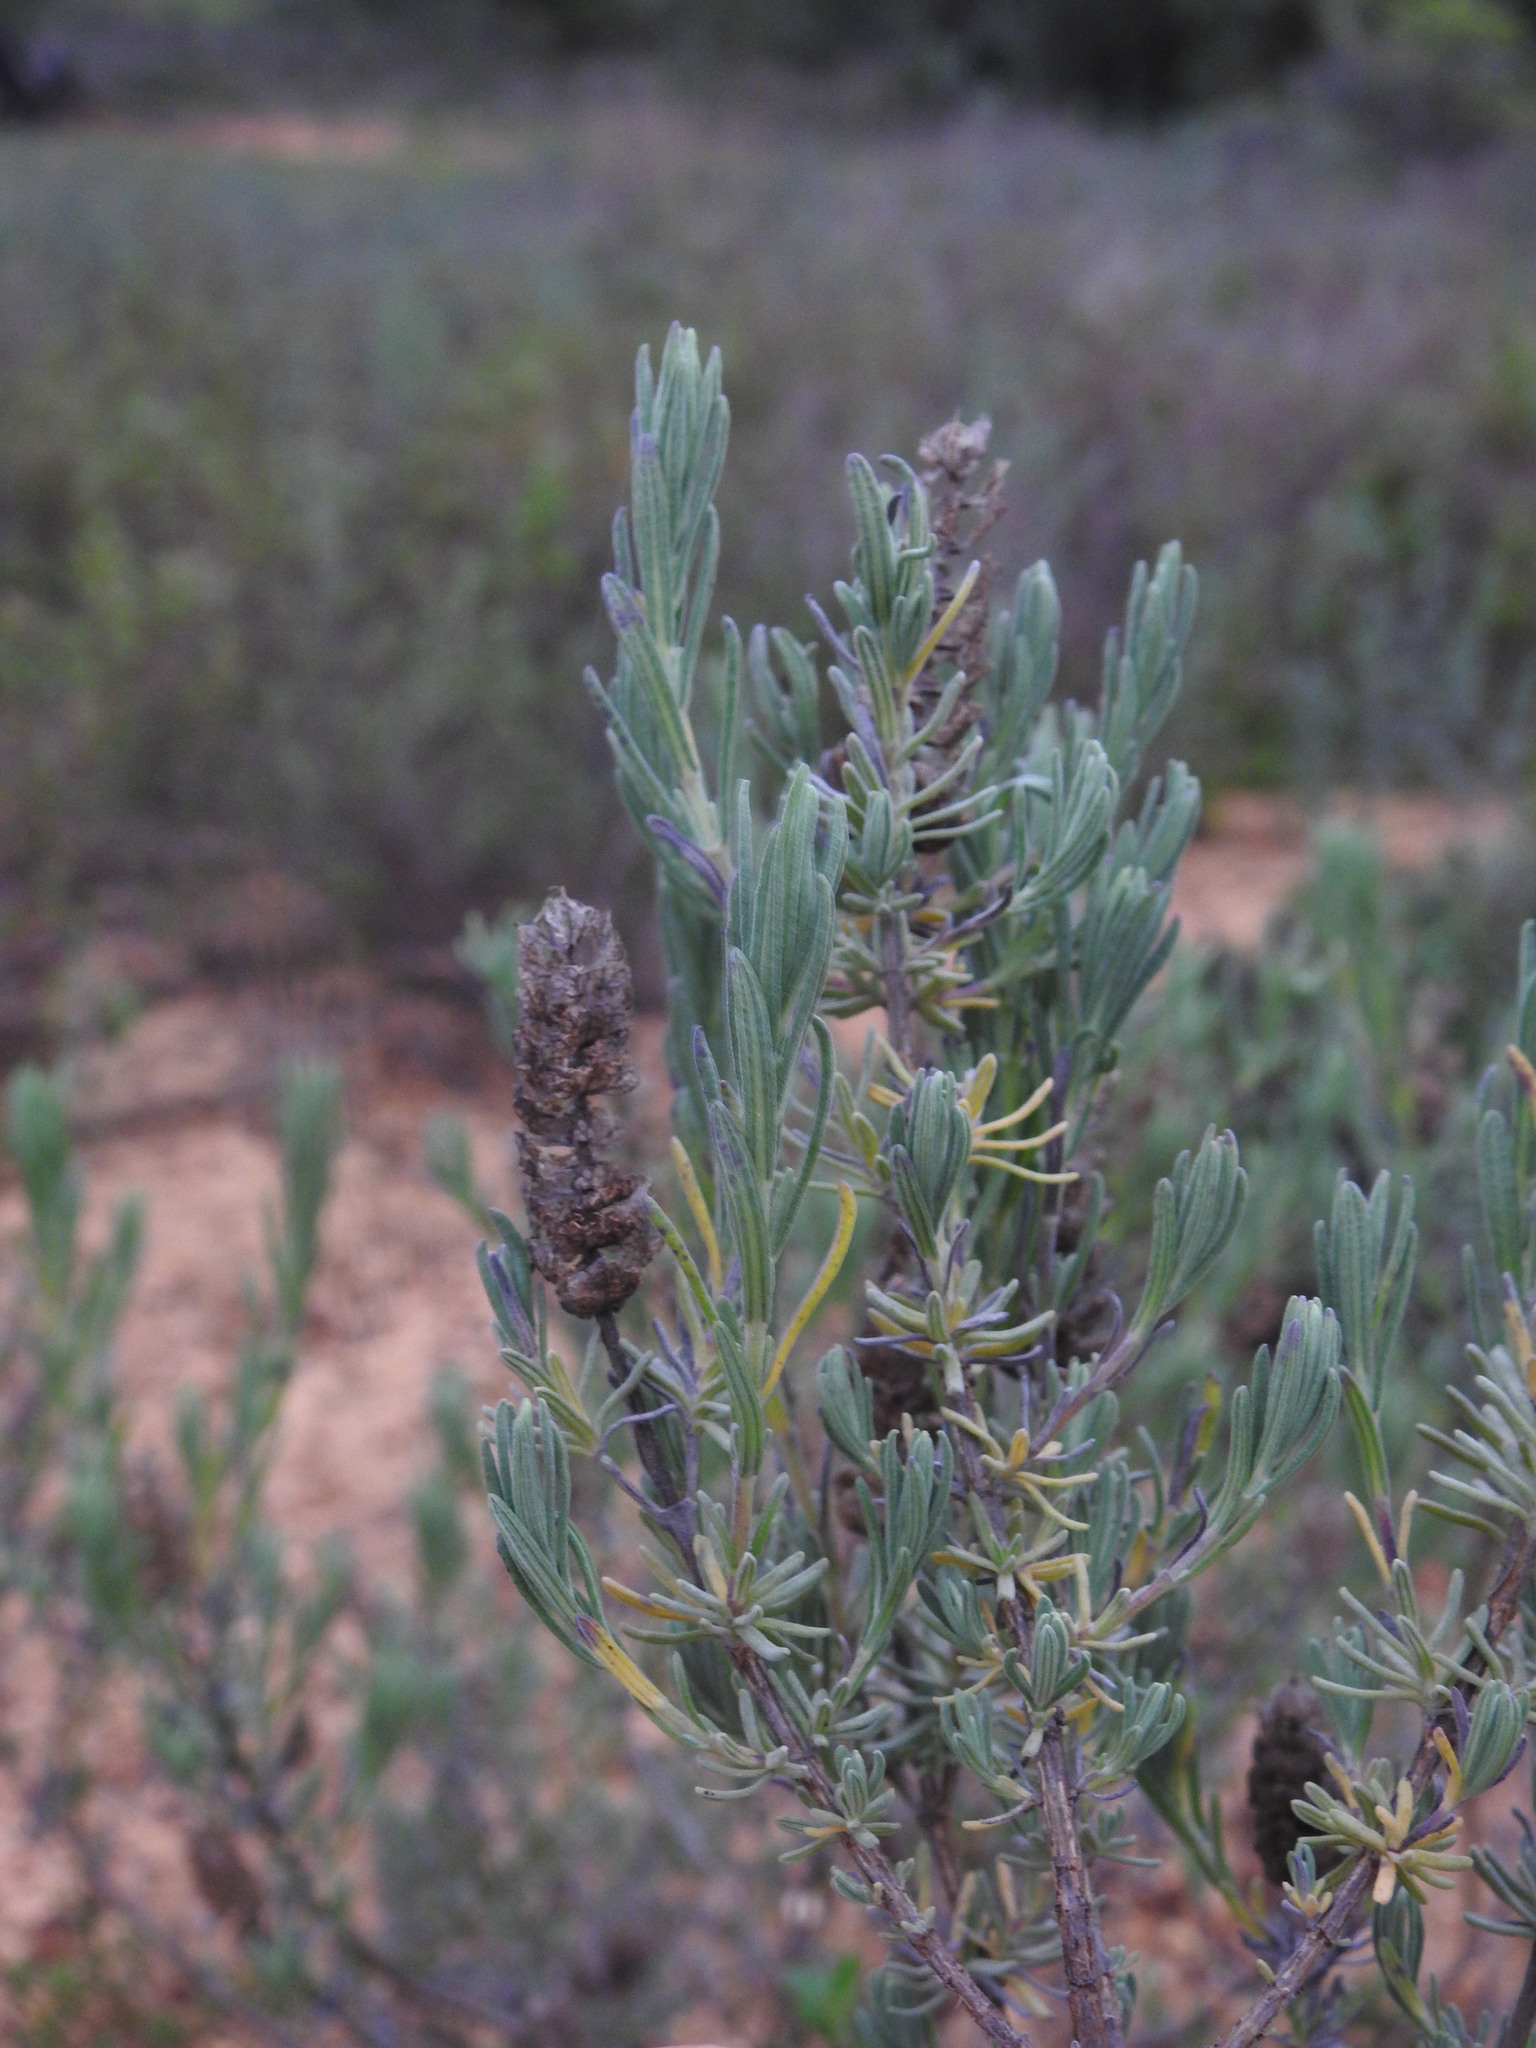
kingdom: Plantae
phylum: Tracheophyta
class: Magnoliopsida
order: Lamiales
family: Lamiaceae
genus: Lavandula
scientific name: Lavandula stoechas
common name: French lavender
